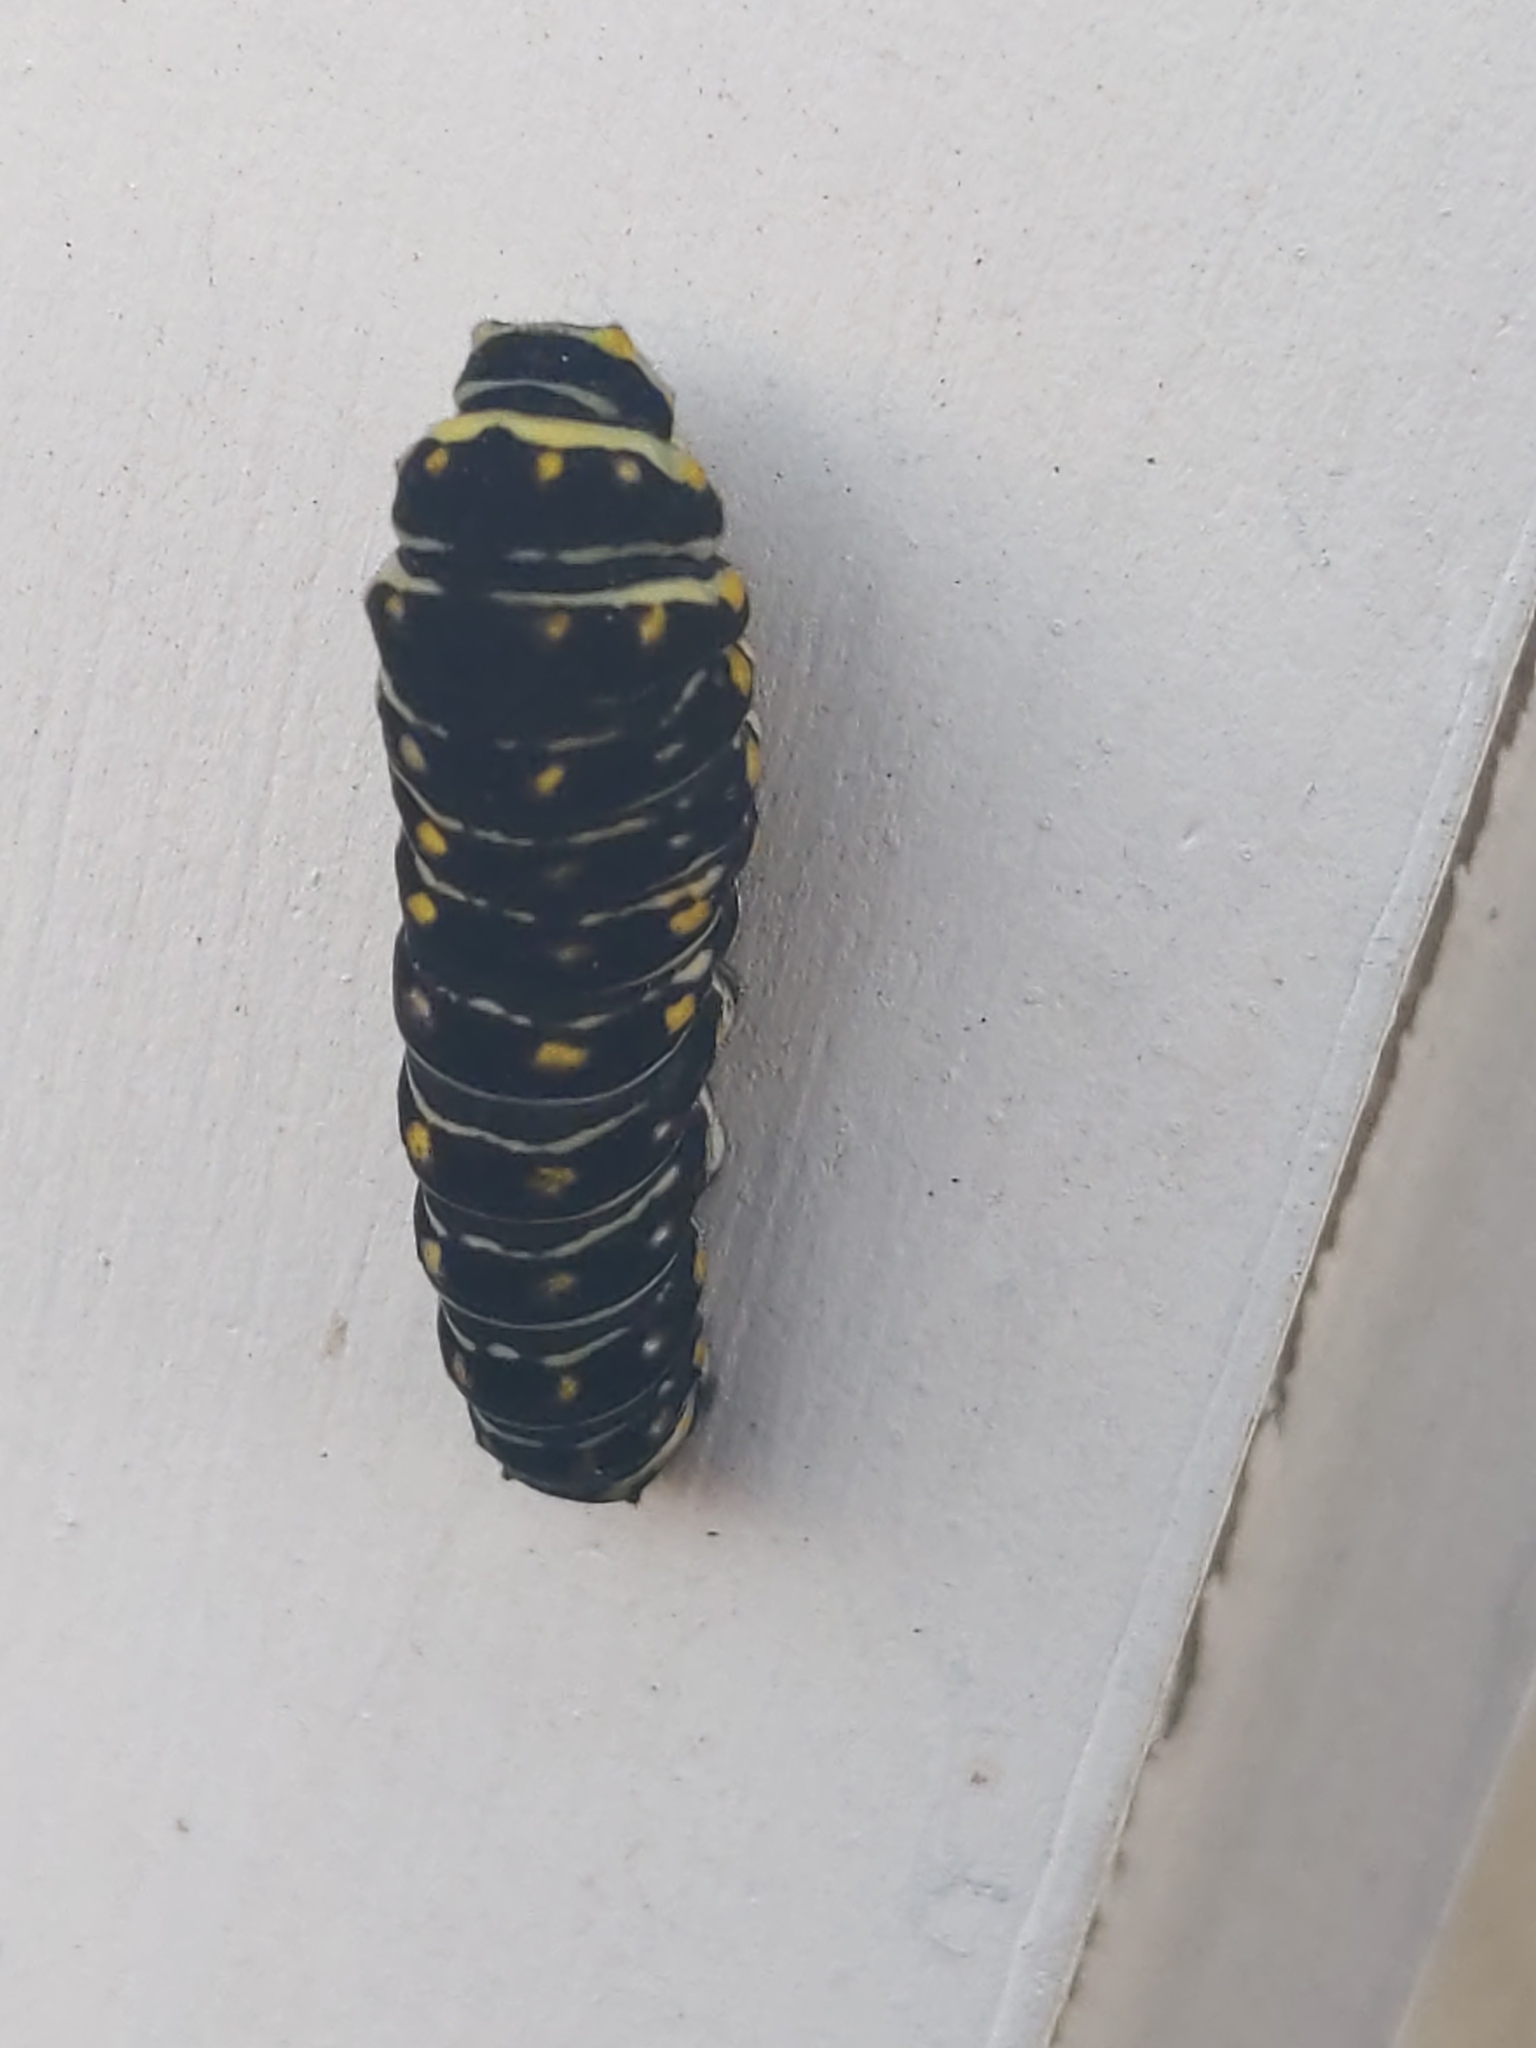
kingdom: Animalia
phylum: Arthropoda
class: Insecta
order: Lepidoptera
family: Papilionidae
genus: Papilio
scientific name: Papilio polyxenes
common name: Black swallowtail
